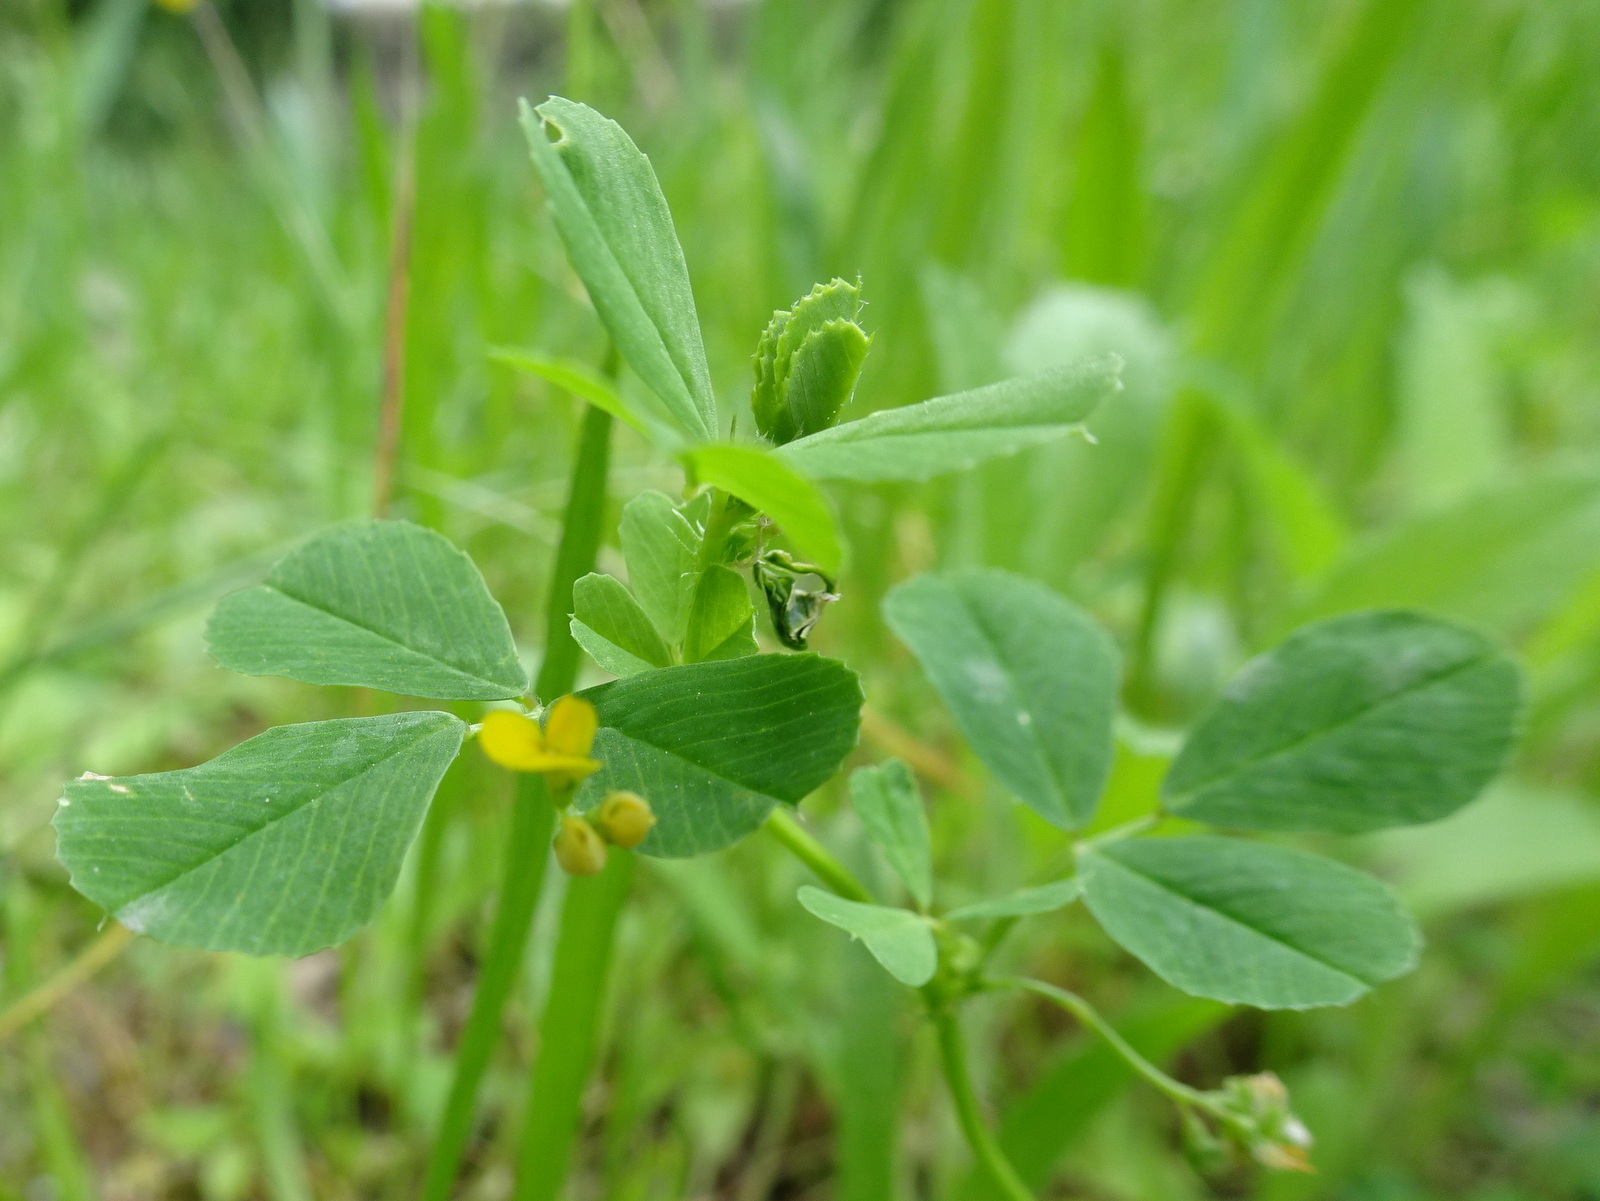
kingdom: Plantae
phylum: Tracheophyta
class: Magnoliopsida
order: Fabales
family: Fabaceae
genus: Medicago
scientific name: Medicago polymorpha
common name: Burclover
